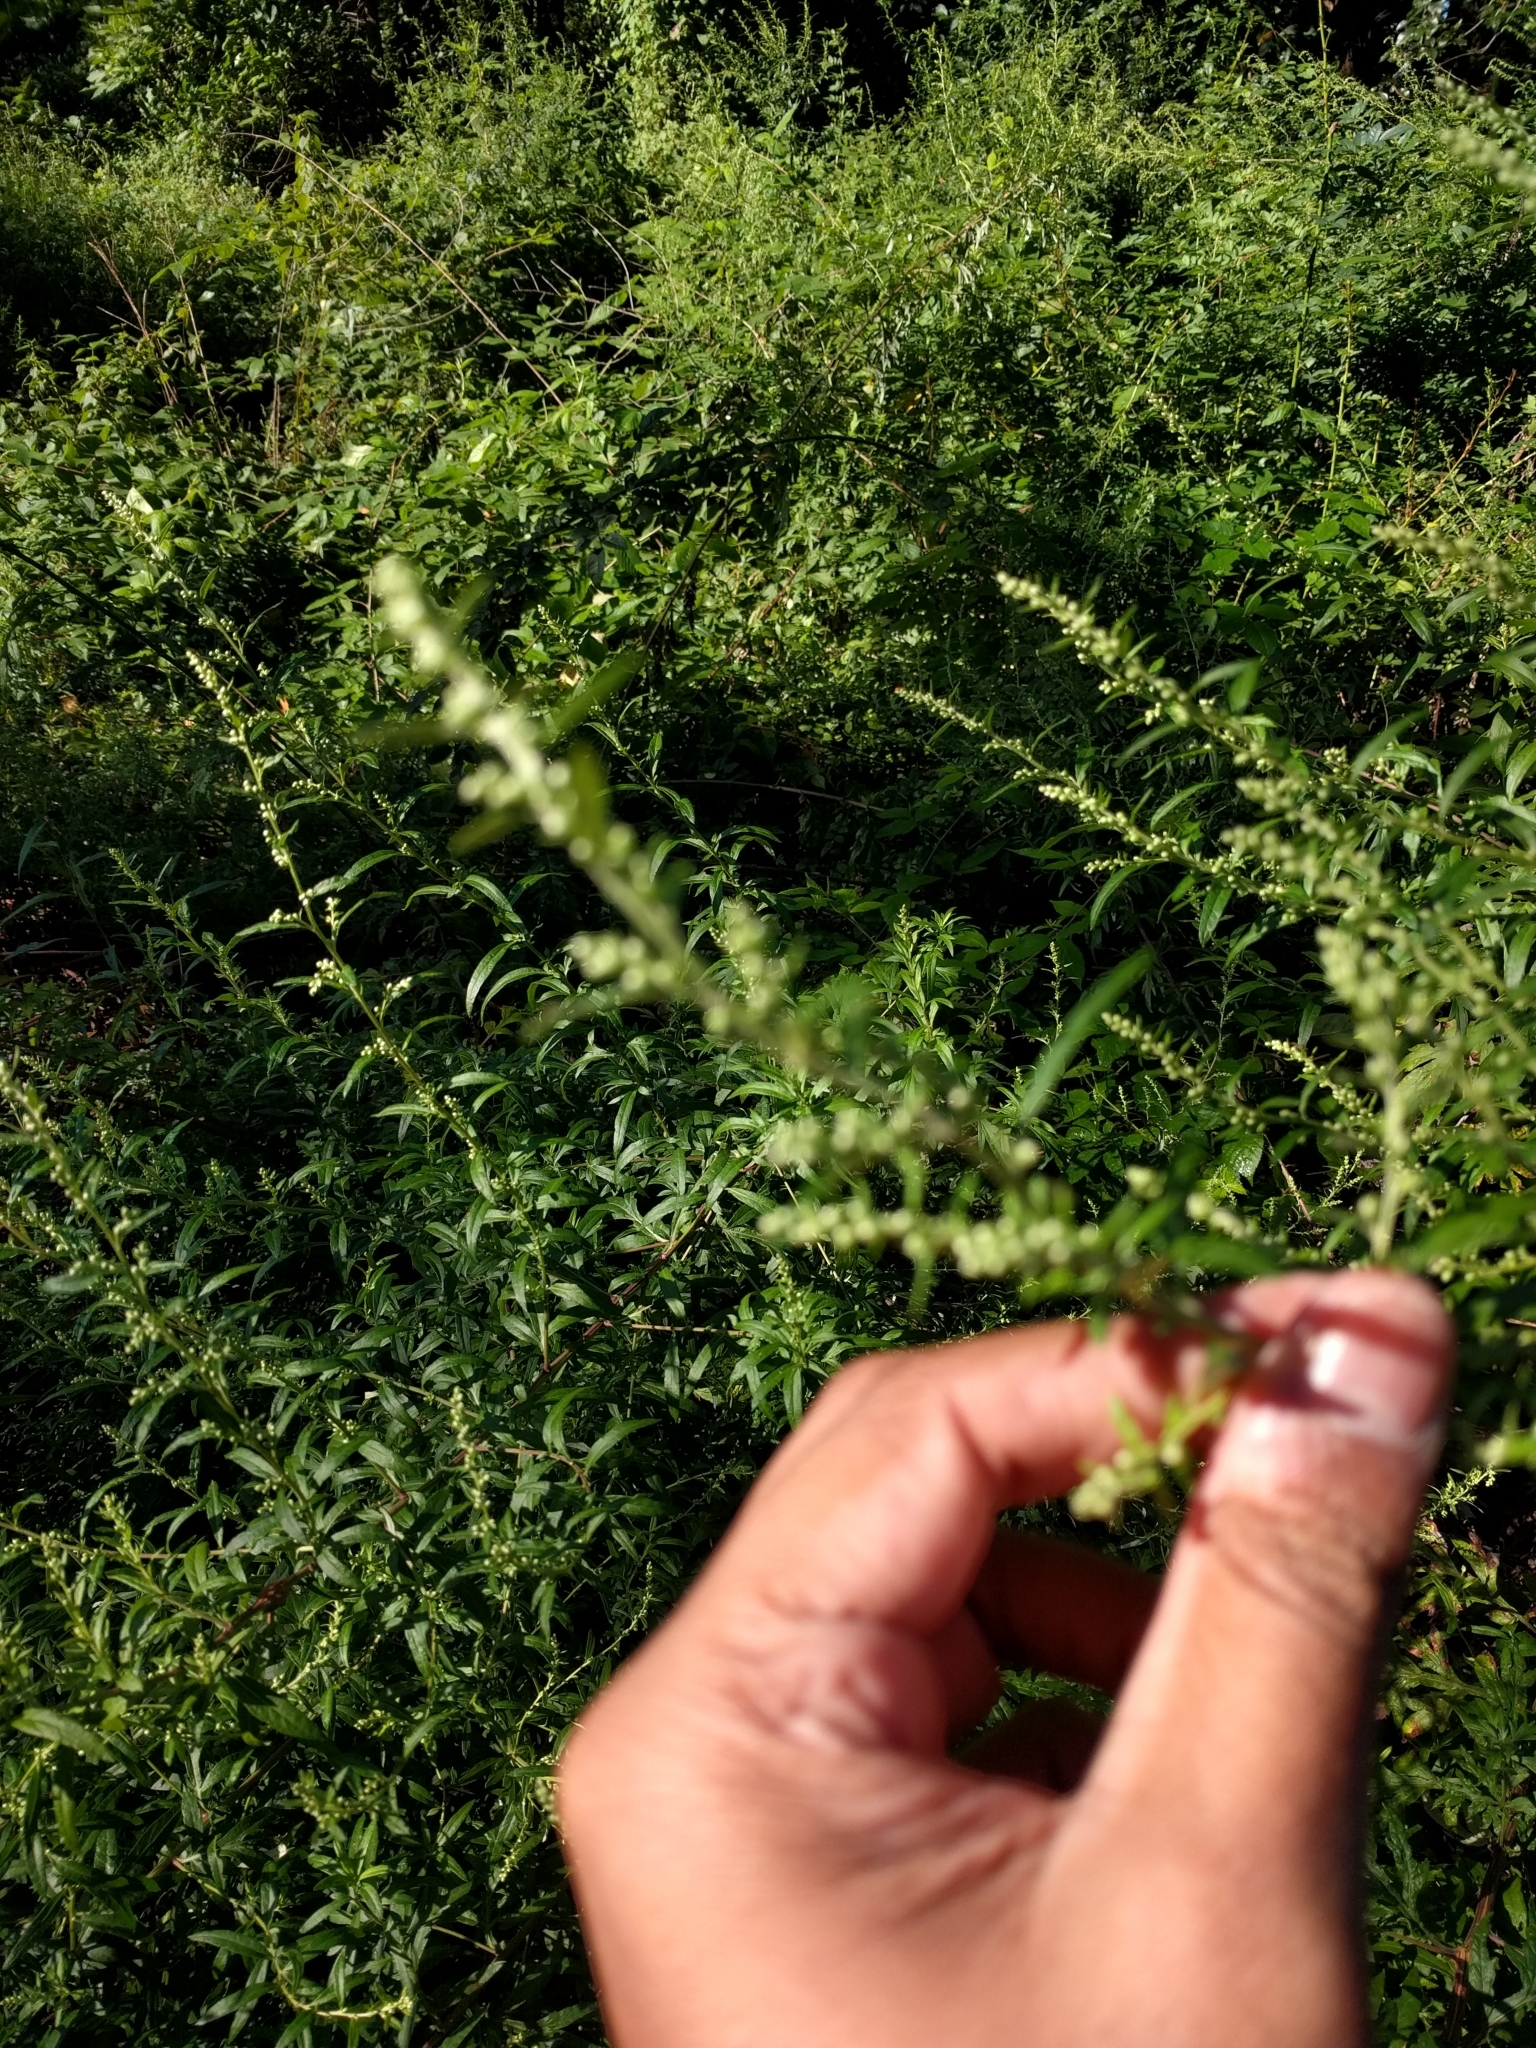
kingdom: Plantae
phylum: Tracheophyta
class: Magnoliopsida
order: Asterales
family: Asteraceae
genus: Artemisia
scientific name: Artemisia vulgaris
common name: Mugwort
